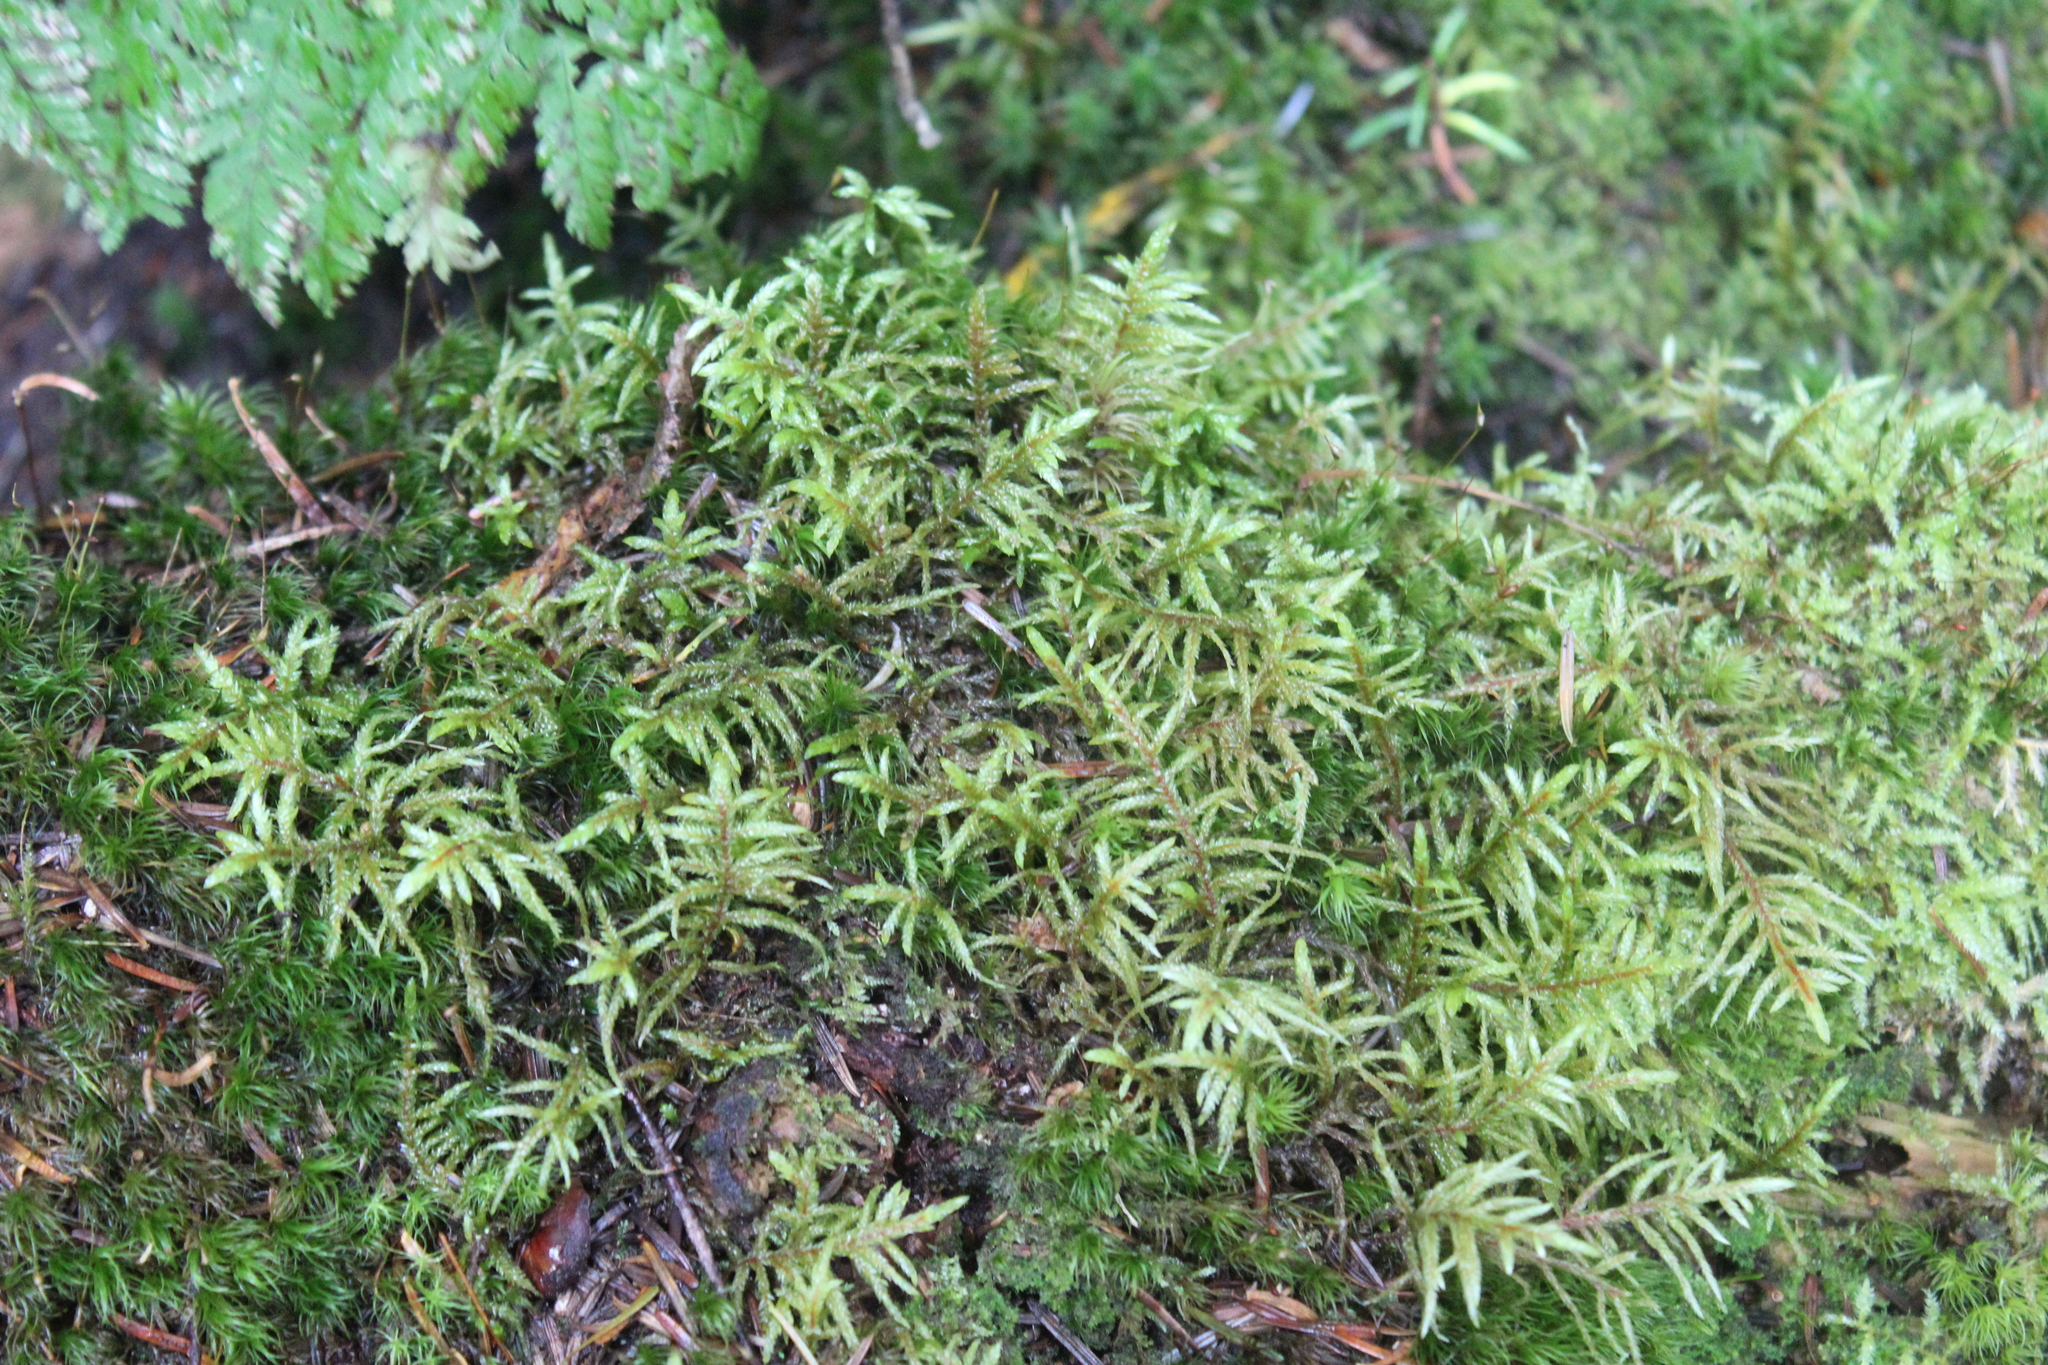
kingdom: Plantae
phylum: Bryophyta
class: Bryopsida
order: Hypnales
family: Hylocomiaceae
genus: Pleurozium
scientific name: Pleurozium schreberi
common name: Red-stemmed feather moss
